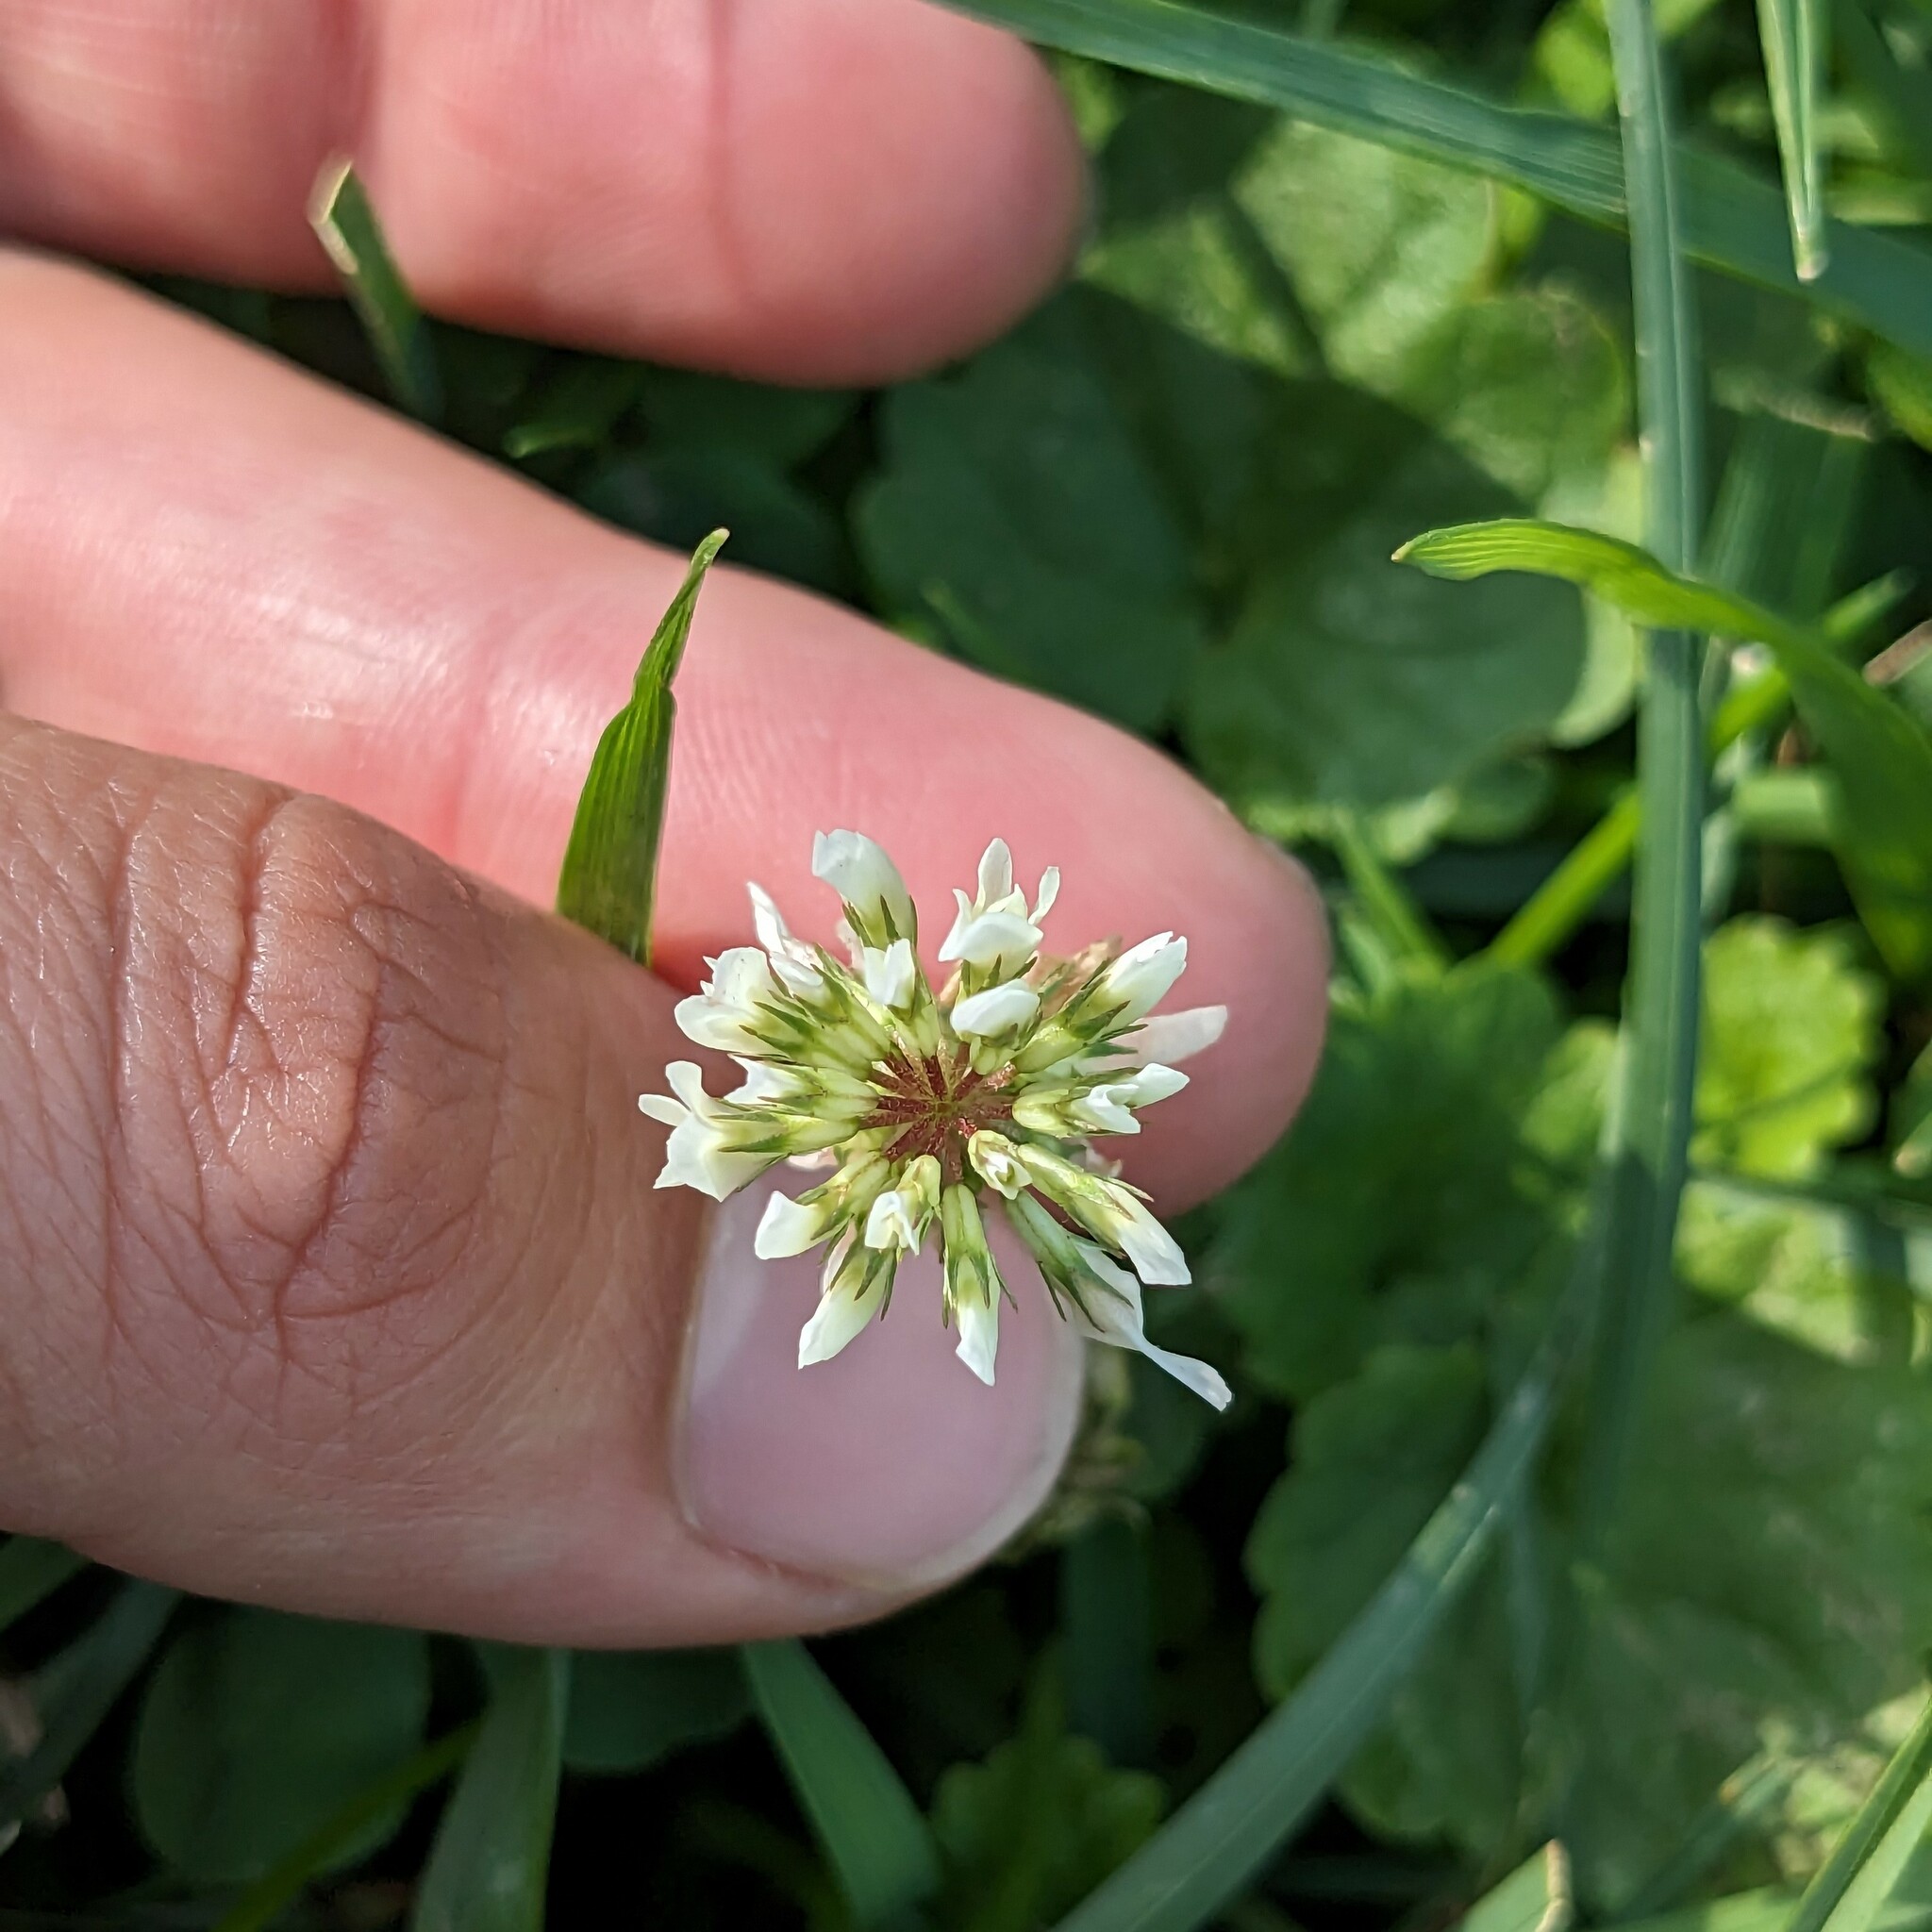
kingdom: Plantae
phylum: Tracheophyta
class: Magnoliopsida
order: Fabales
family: Fabaceae
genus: Trifolium
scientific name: Trifolium repens
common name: White clover
